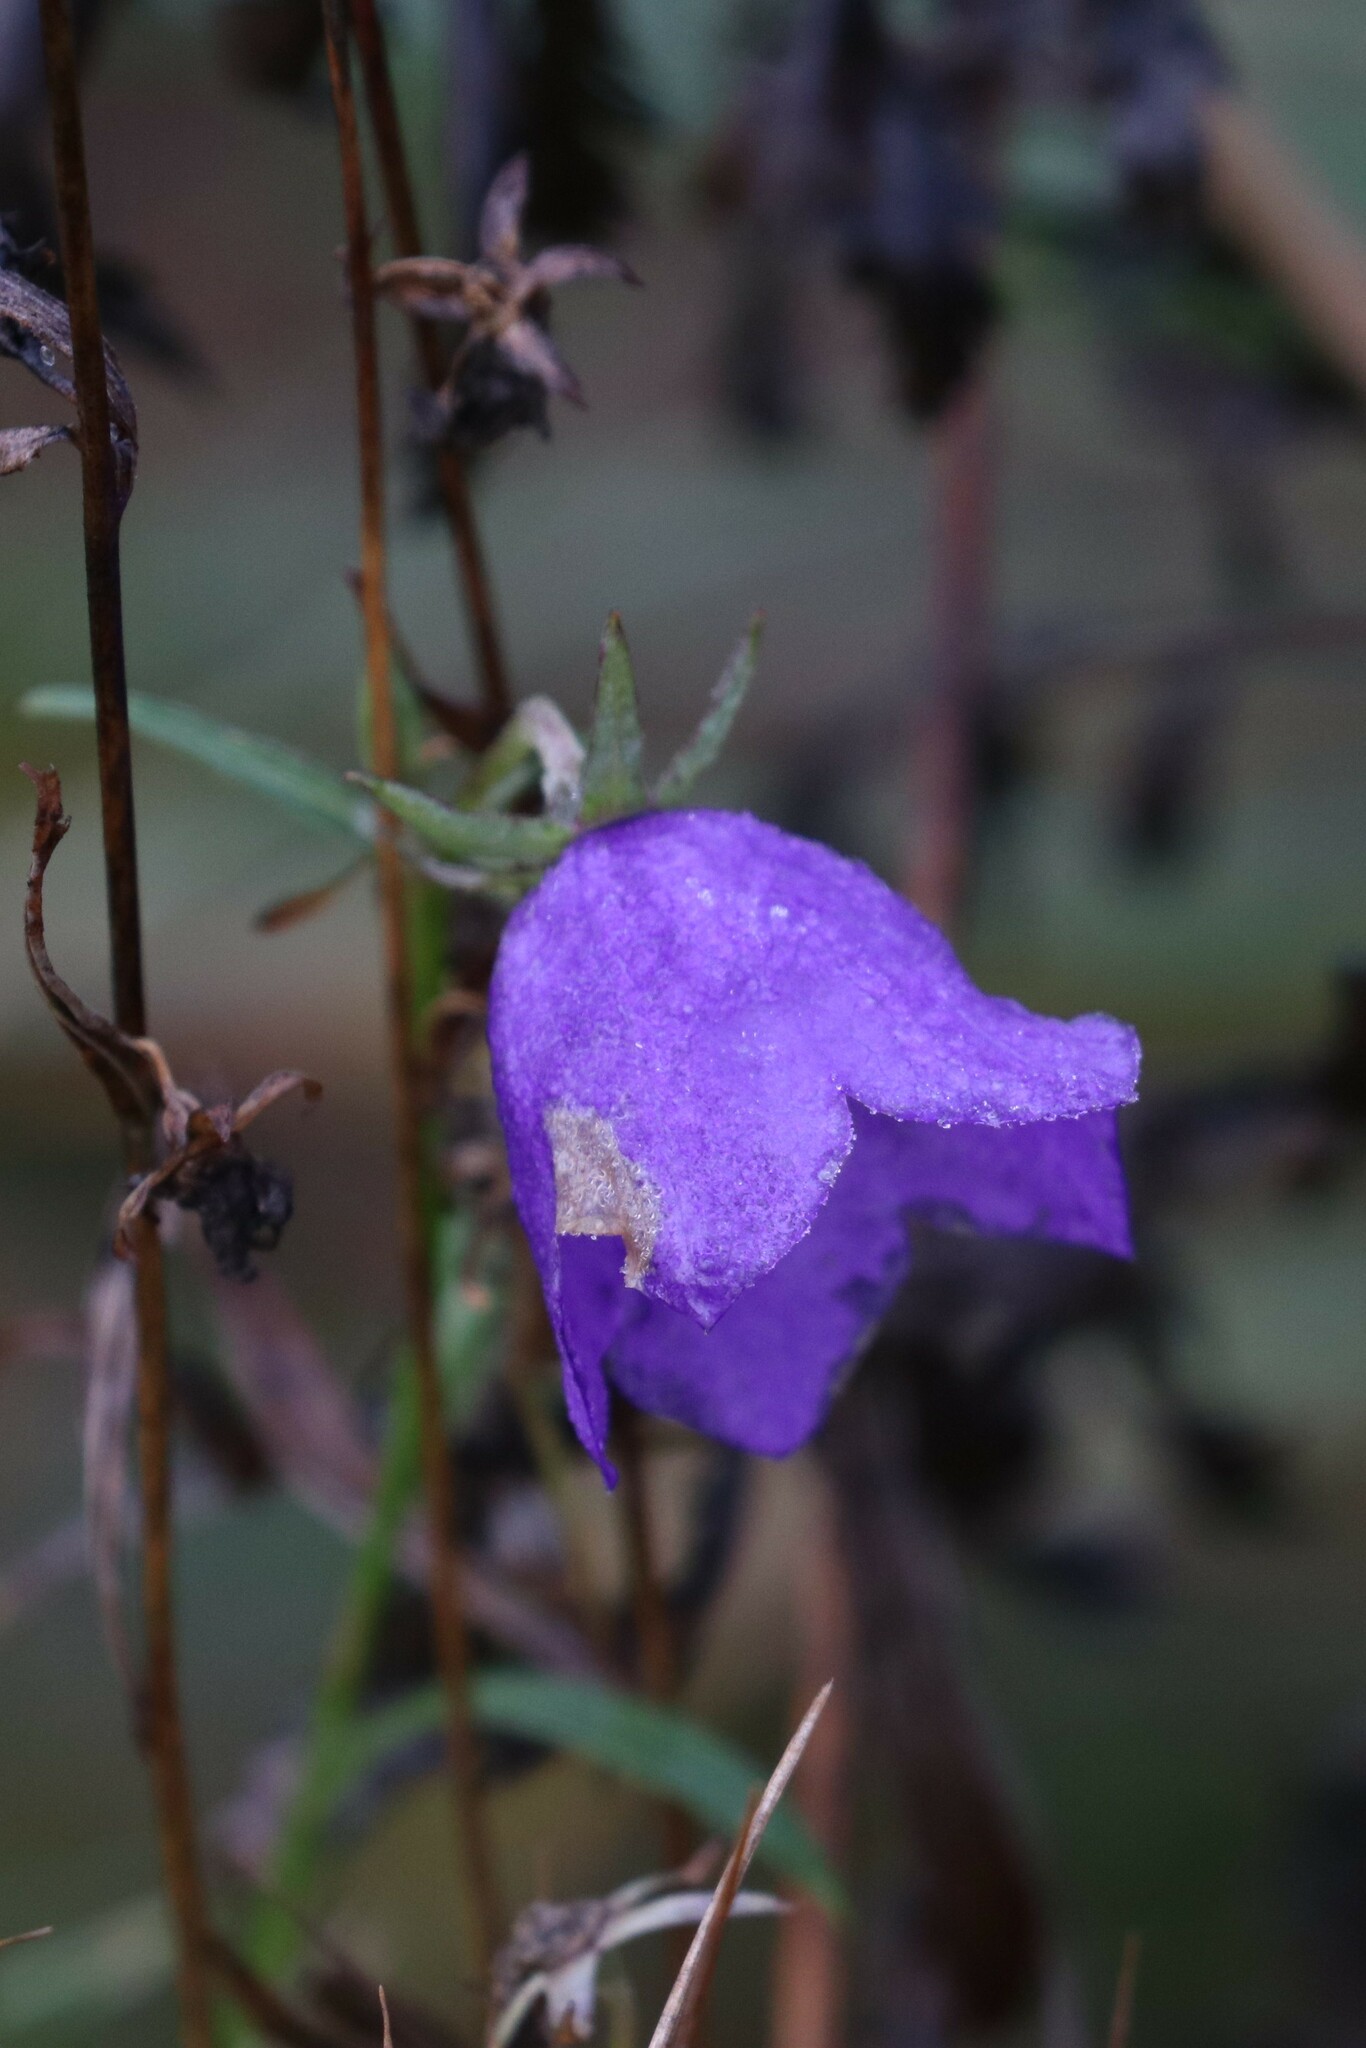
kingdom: Plantae
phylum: Tracheophyta
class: Magnoliopsida
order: Asterales
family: Campanulaceae
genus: Campanula
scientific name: Campanula persicifolia
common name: Peach-leaved bellflower
